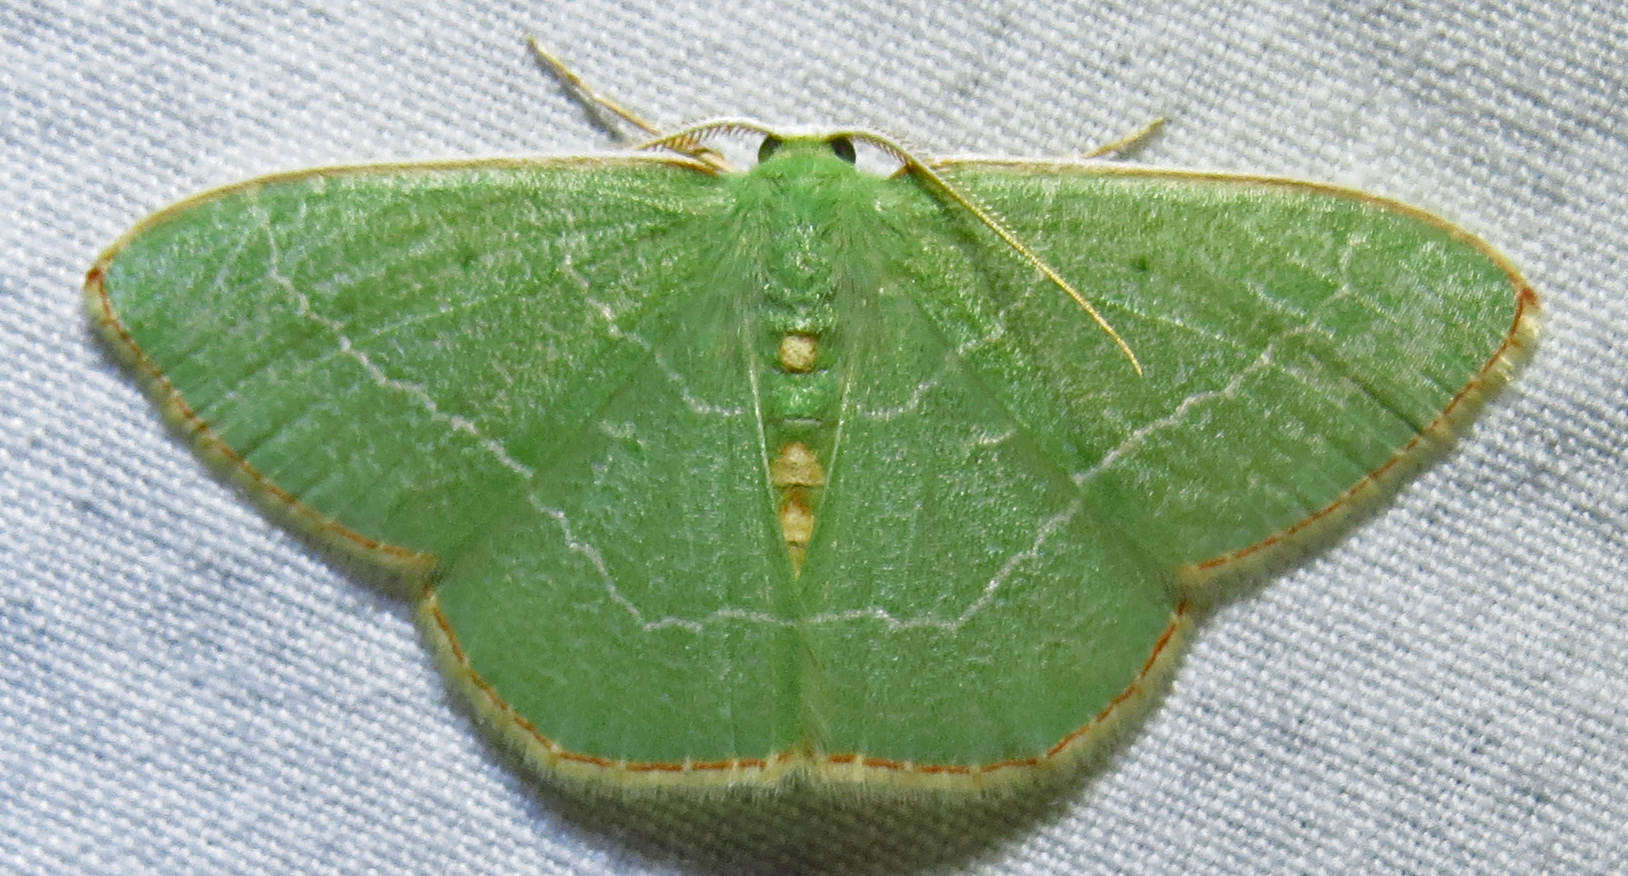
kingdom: Animalia
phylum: Arthropoda
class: Insecta
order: Lepidoptera
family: Geometridae
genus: Nemoria
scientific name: Nemoria bistriaria
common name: Red-fringed emerald
